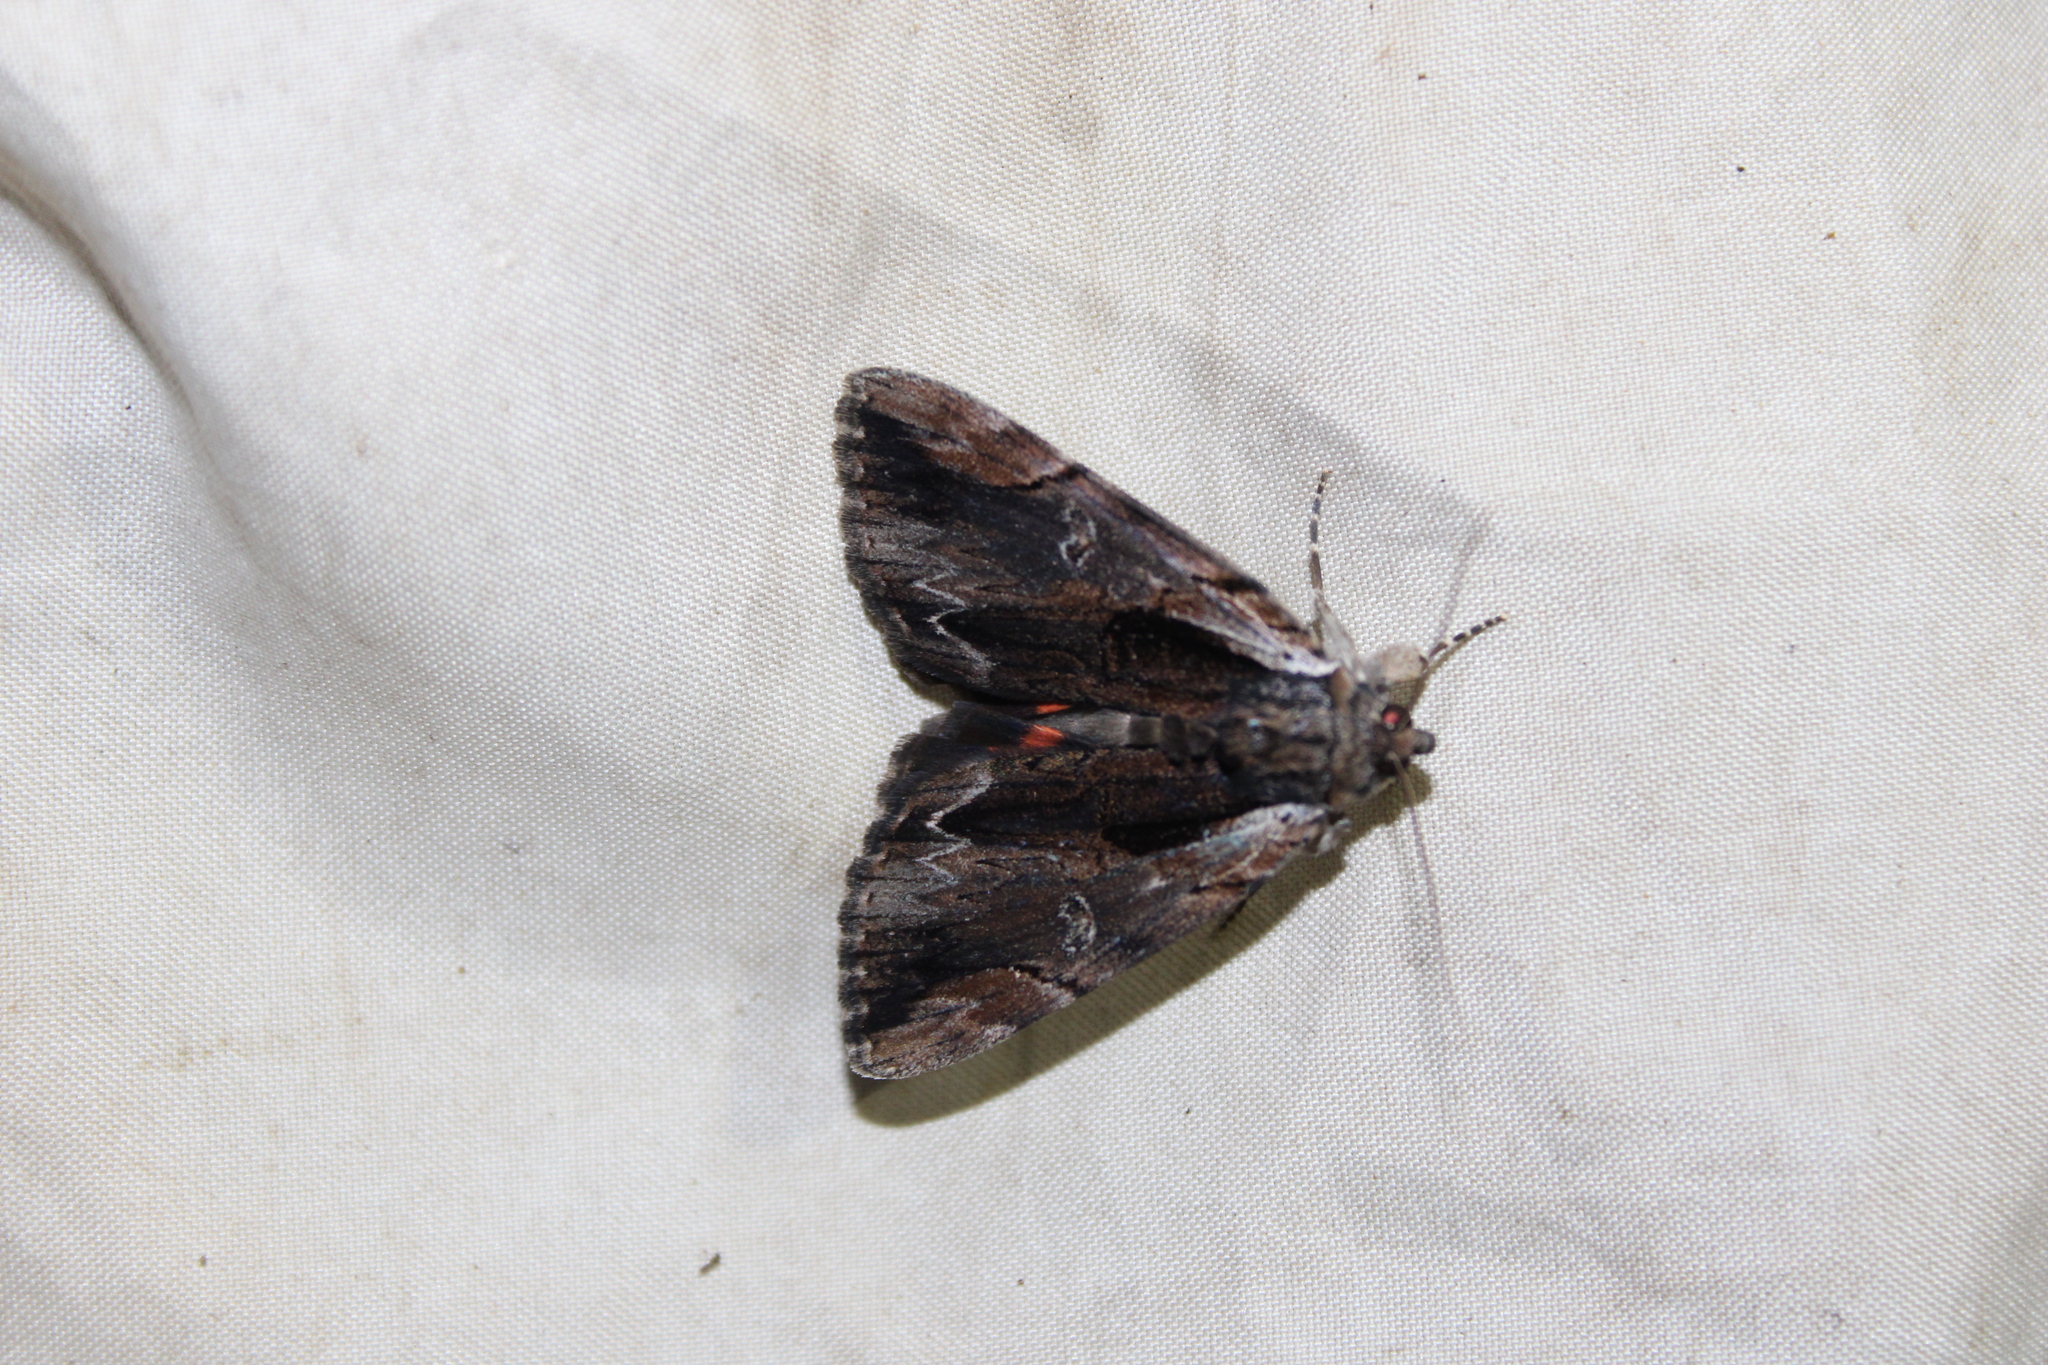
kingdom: Animalia
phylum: Arthropoda
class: Insecta
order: Lepidoptera
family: Erebidae
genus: Catocala
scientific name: Catocala ultronia
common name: Ultronia underwing
